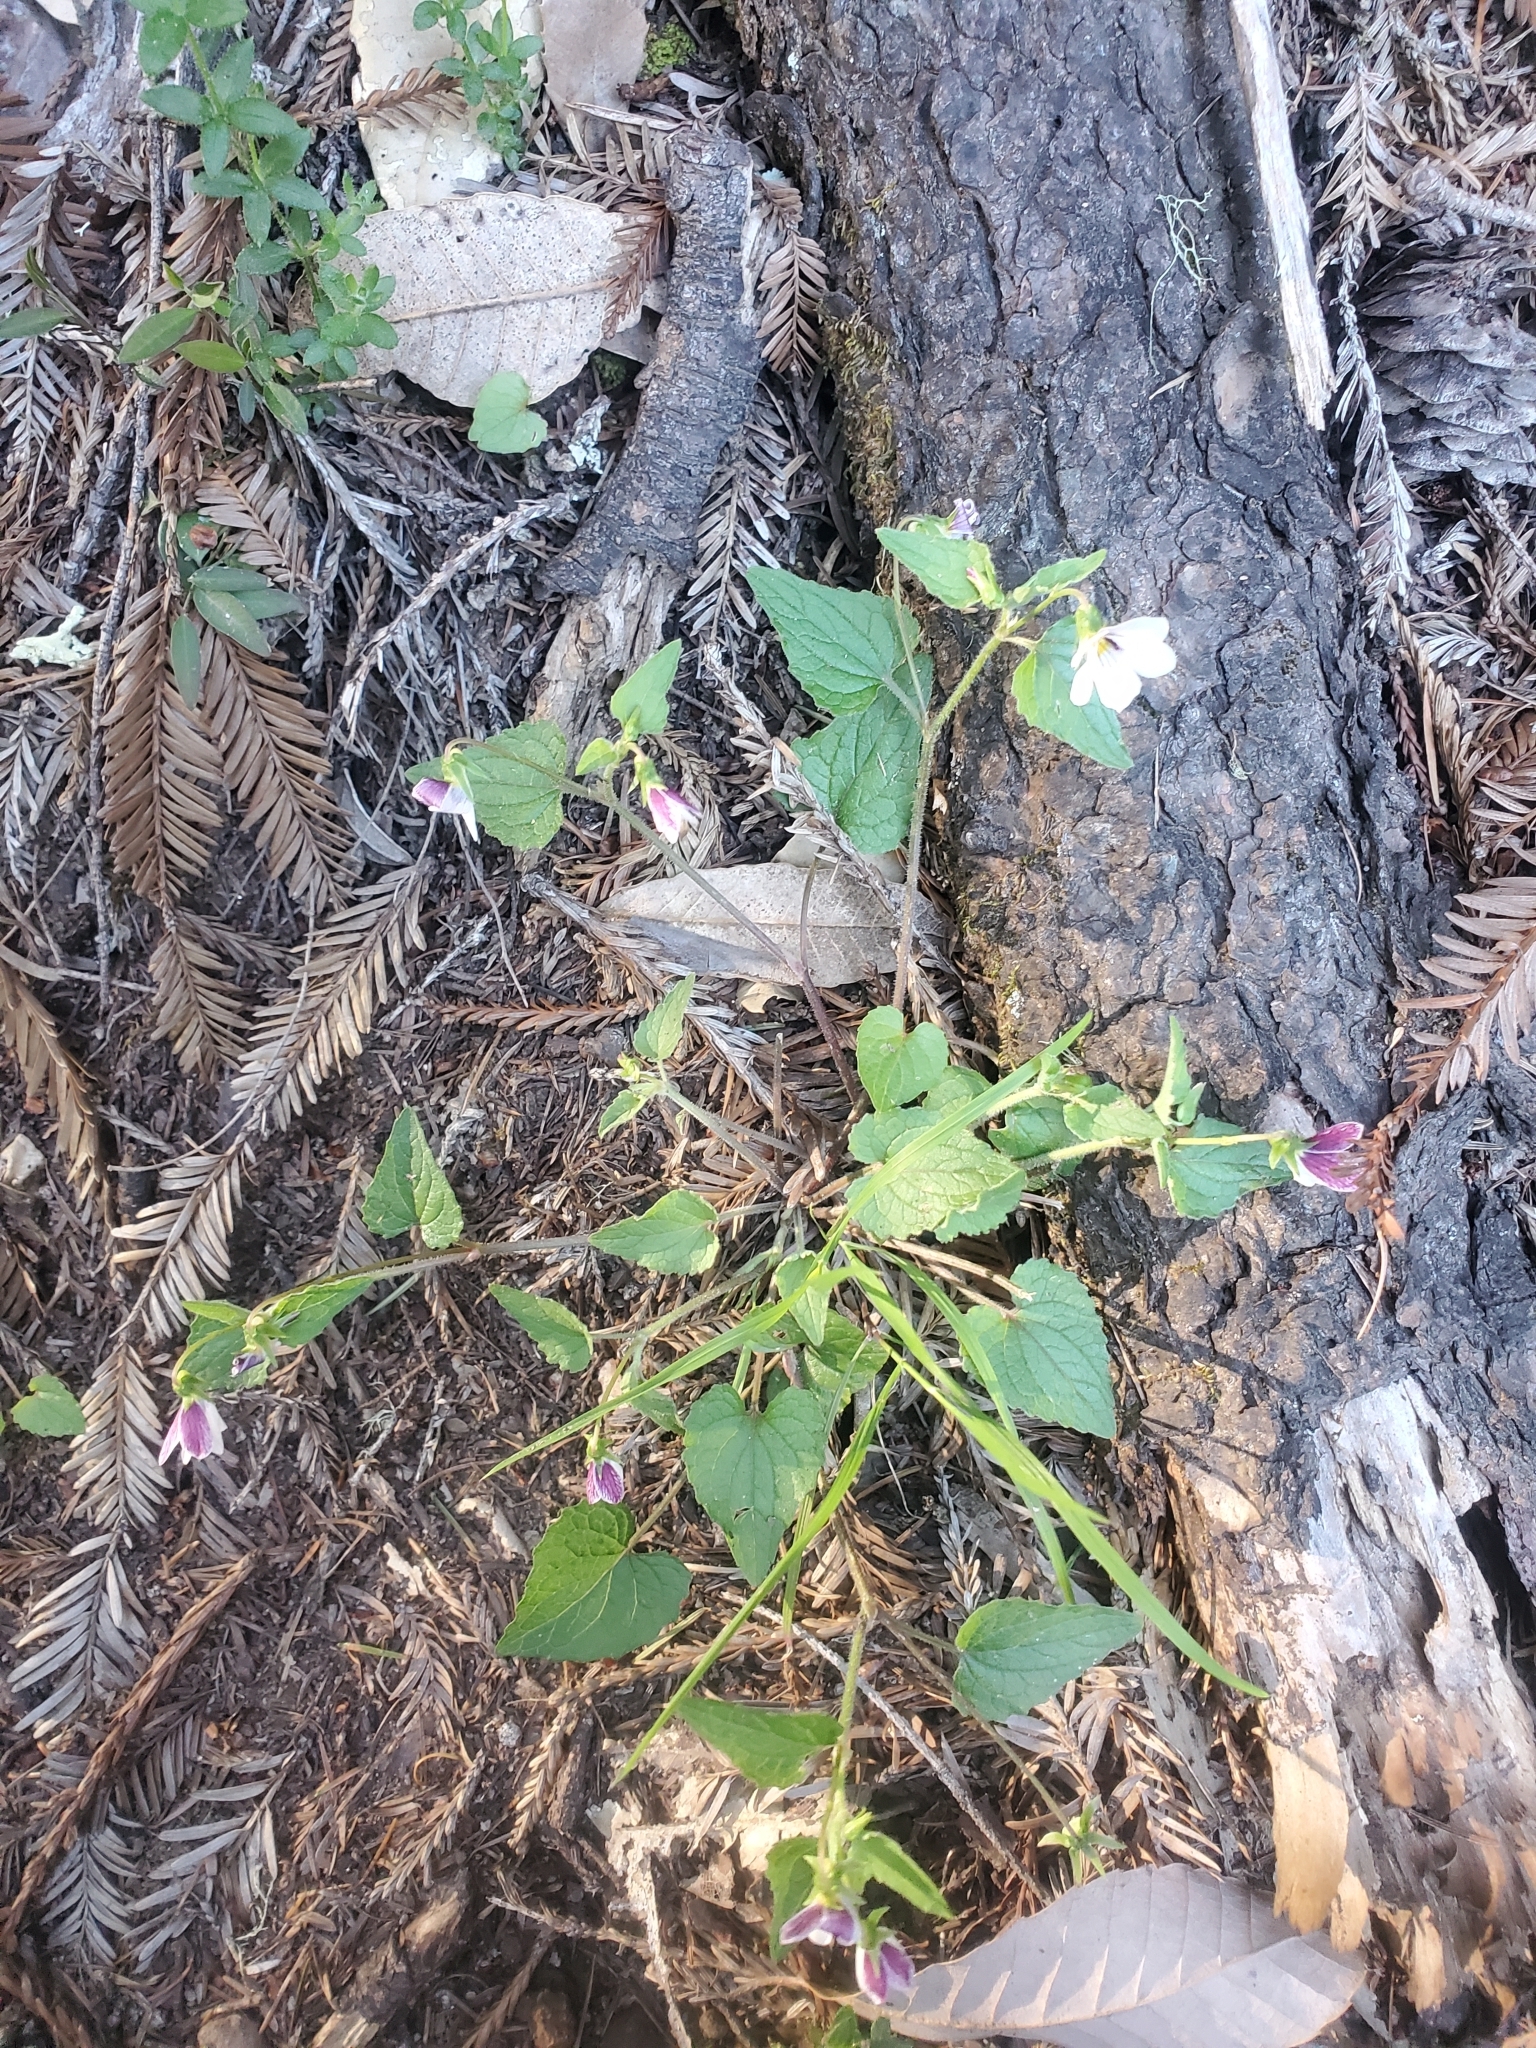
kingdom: Plantae
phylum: Tracheophyta
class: Magnoliopsida
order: Malpighiales
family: Violaceae
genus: Viola
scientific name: Viola ocellata
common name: Western heart's ease
